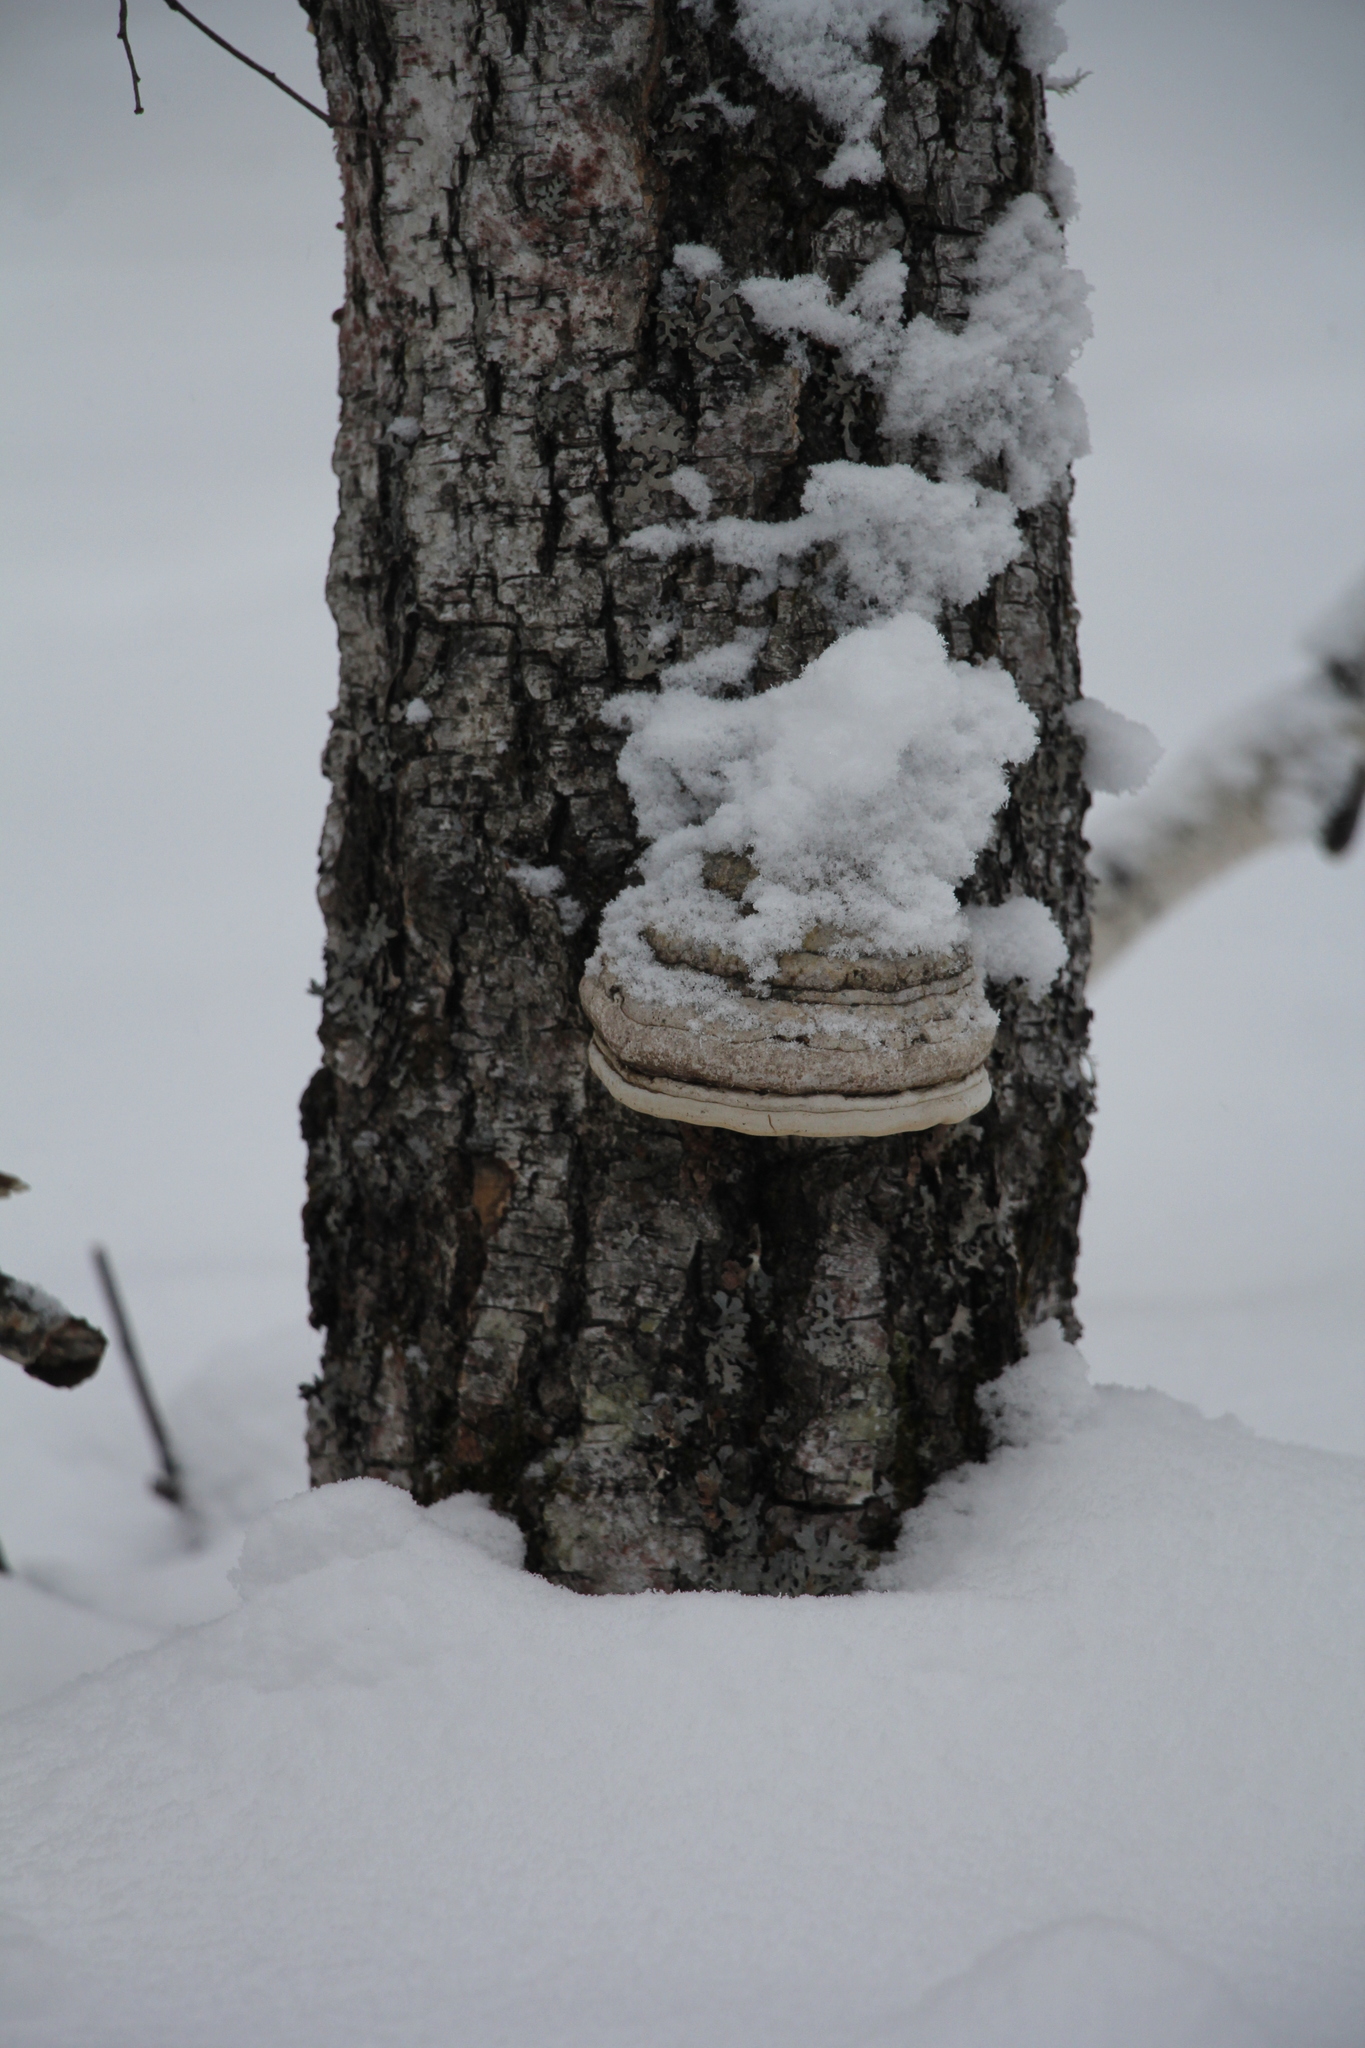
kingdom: Fungi
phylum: Basidiomycota
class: Agaricomycetes
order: Polyporales
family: Polyporaceae
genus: Fomes
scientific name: Fomes fomentarius
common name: Hoof fungus
